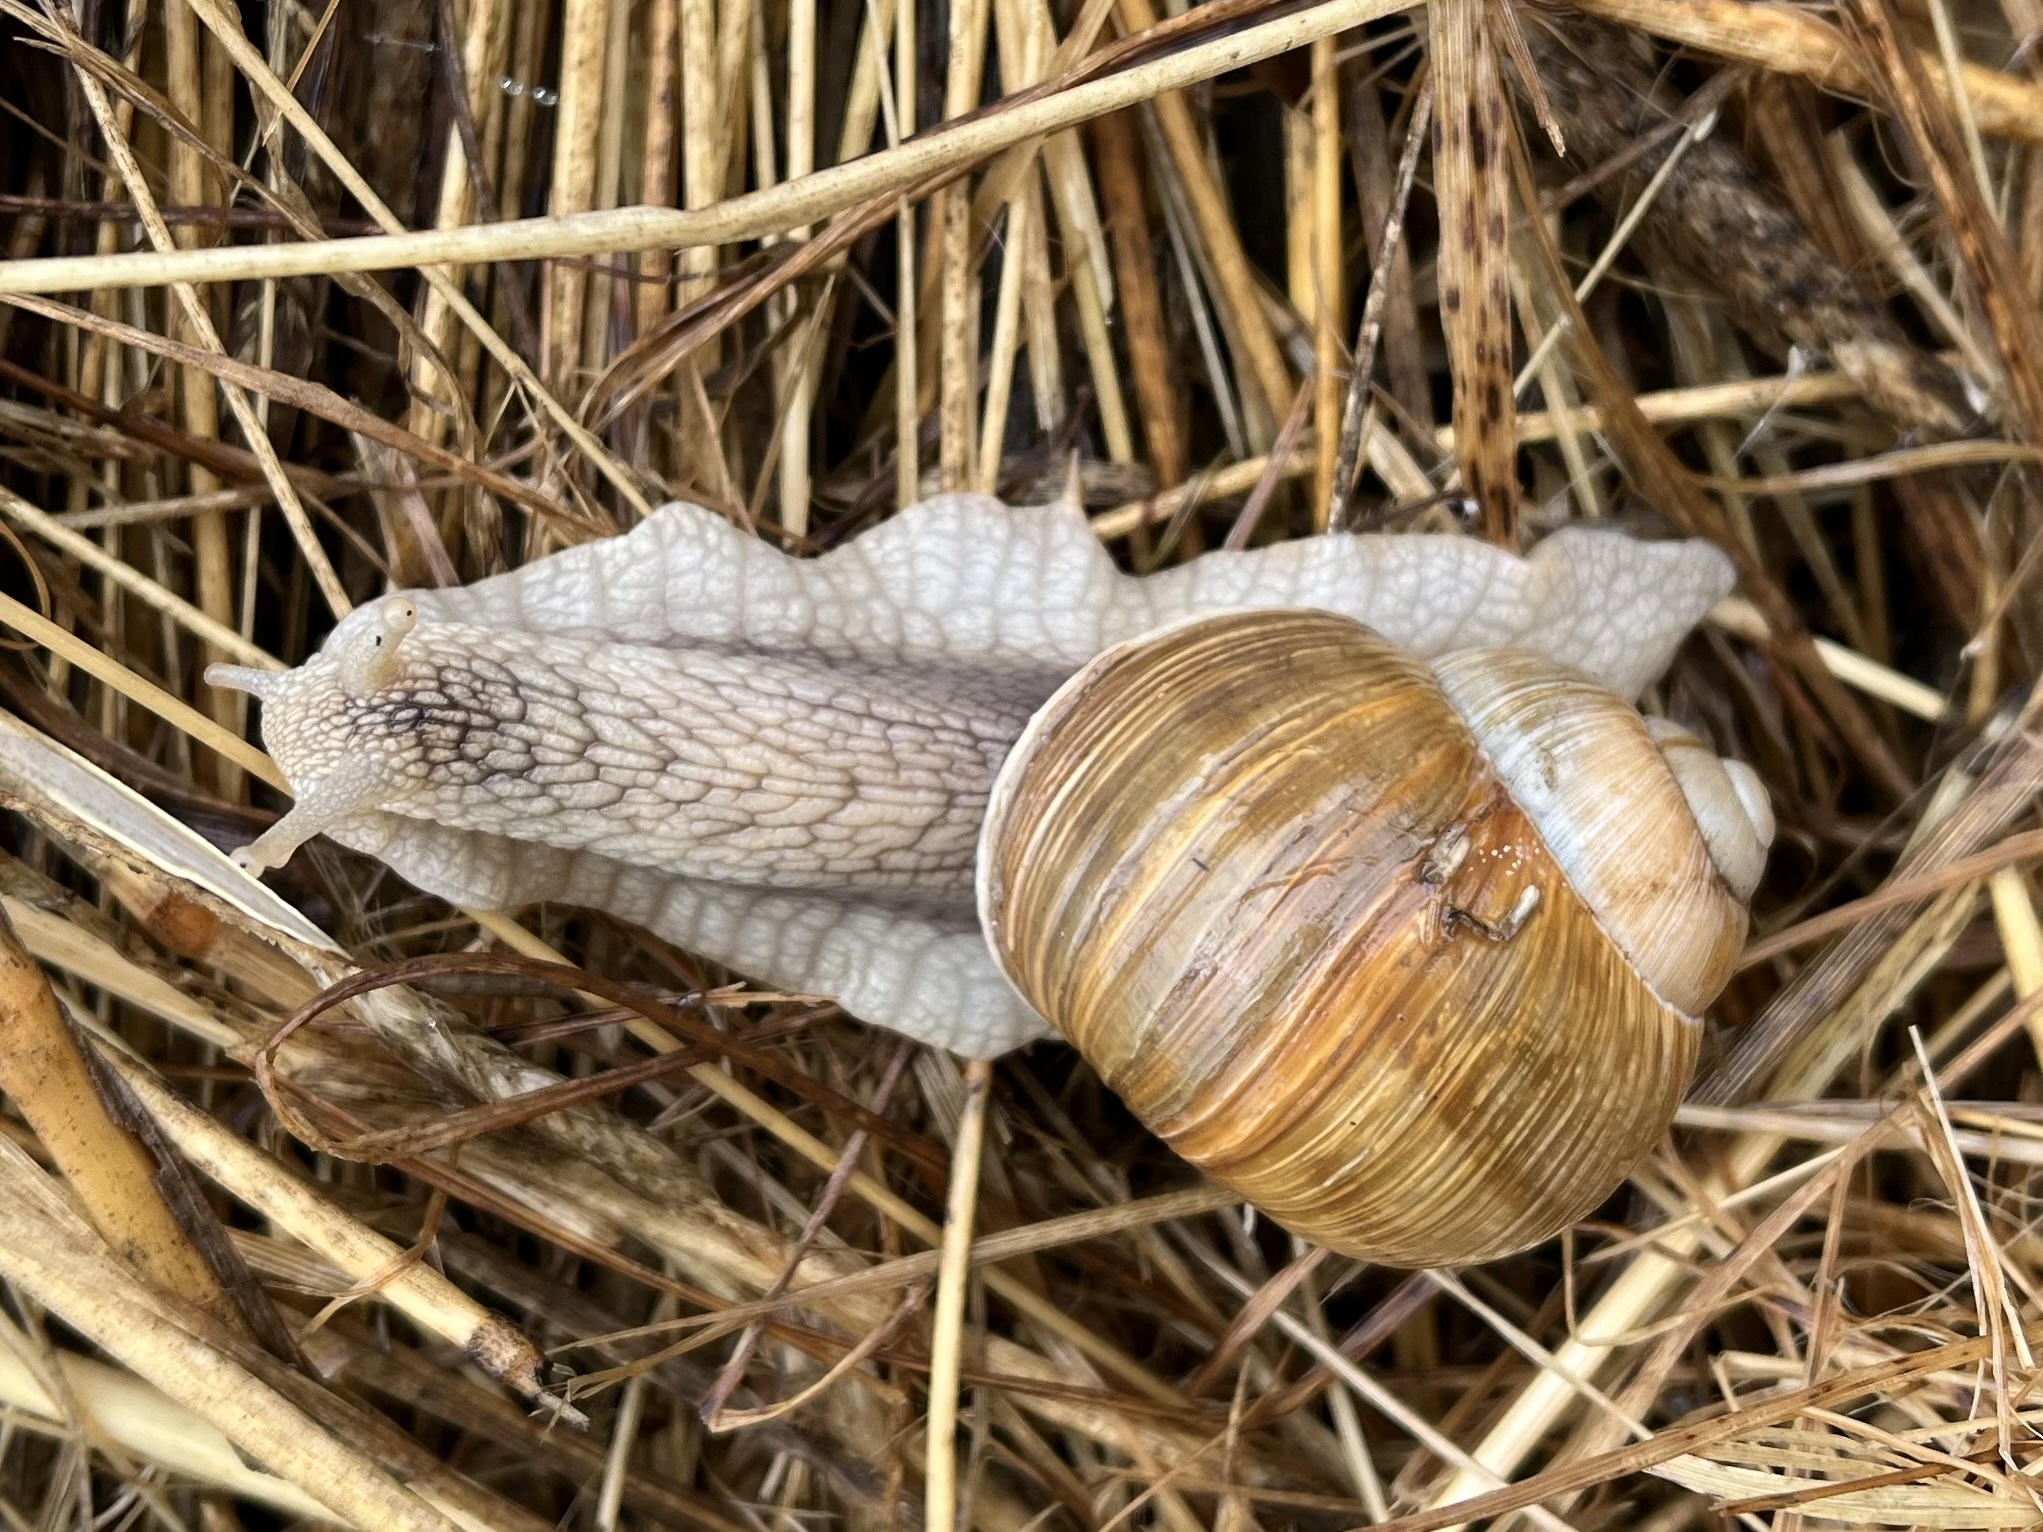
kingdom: Animalia
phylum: Mollusca
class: Gastropoda
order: Stylommatophora
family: Helicidae
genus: Helix
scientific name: Helix pomatia
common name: Roman snail
